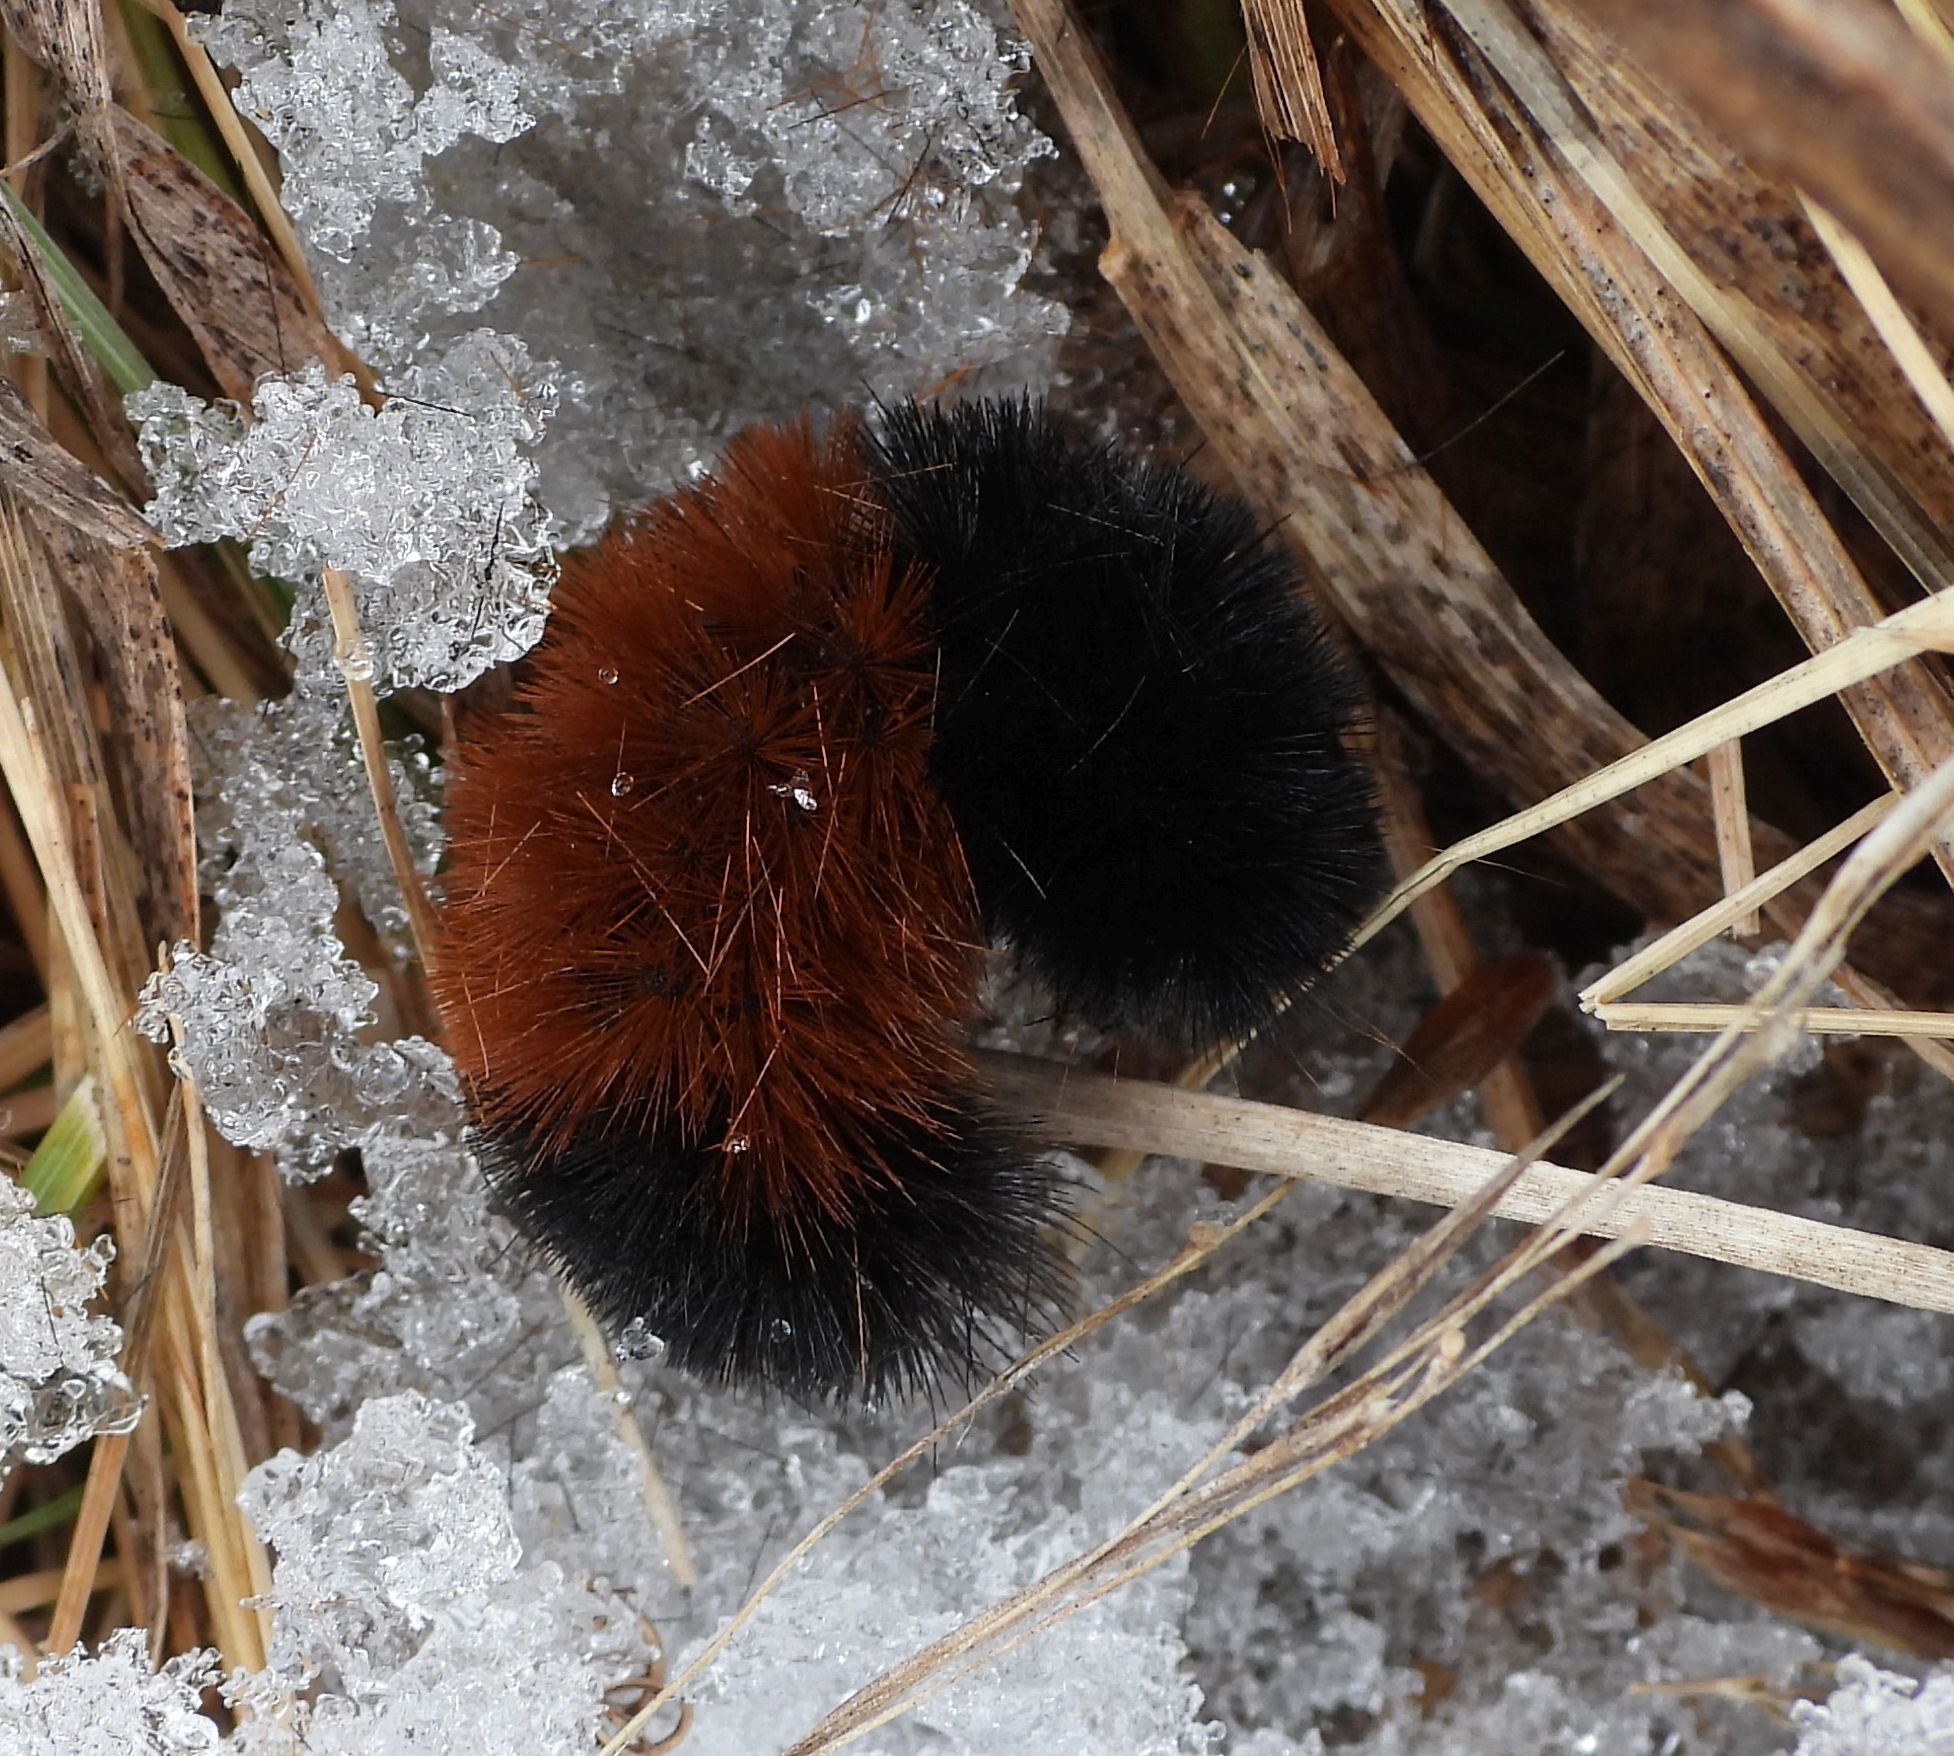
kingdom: Animalia
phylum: Arthropoda
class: Insecta
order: Lepidoptera
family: Erebidae
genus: Pyrrharctia
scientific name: Pyrrharctia isabella
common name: Isabella tiger moth
